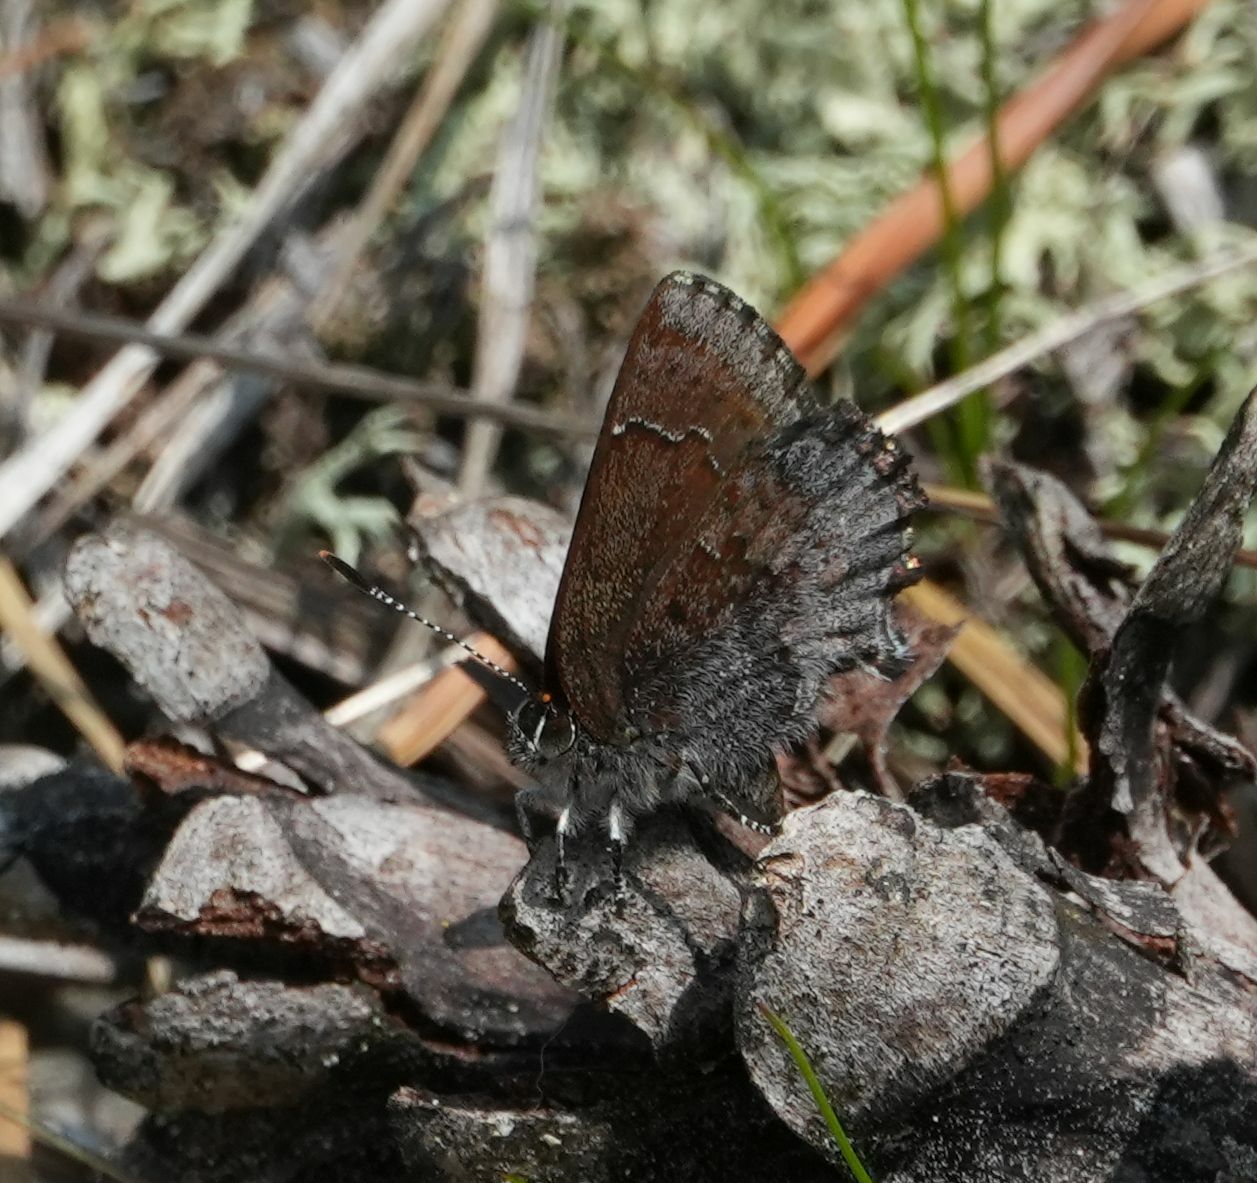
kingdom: Animalia
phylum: Arthropoda
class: Insecta
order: Lepidoptera
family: Lycaenidae
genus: Callophrys
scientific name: Callophrys polios
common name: Hoary elfin
